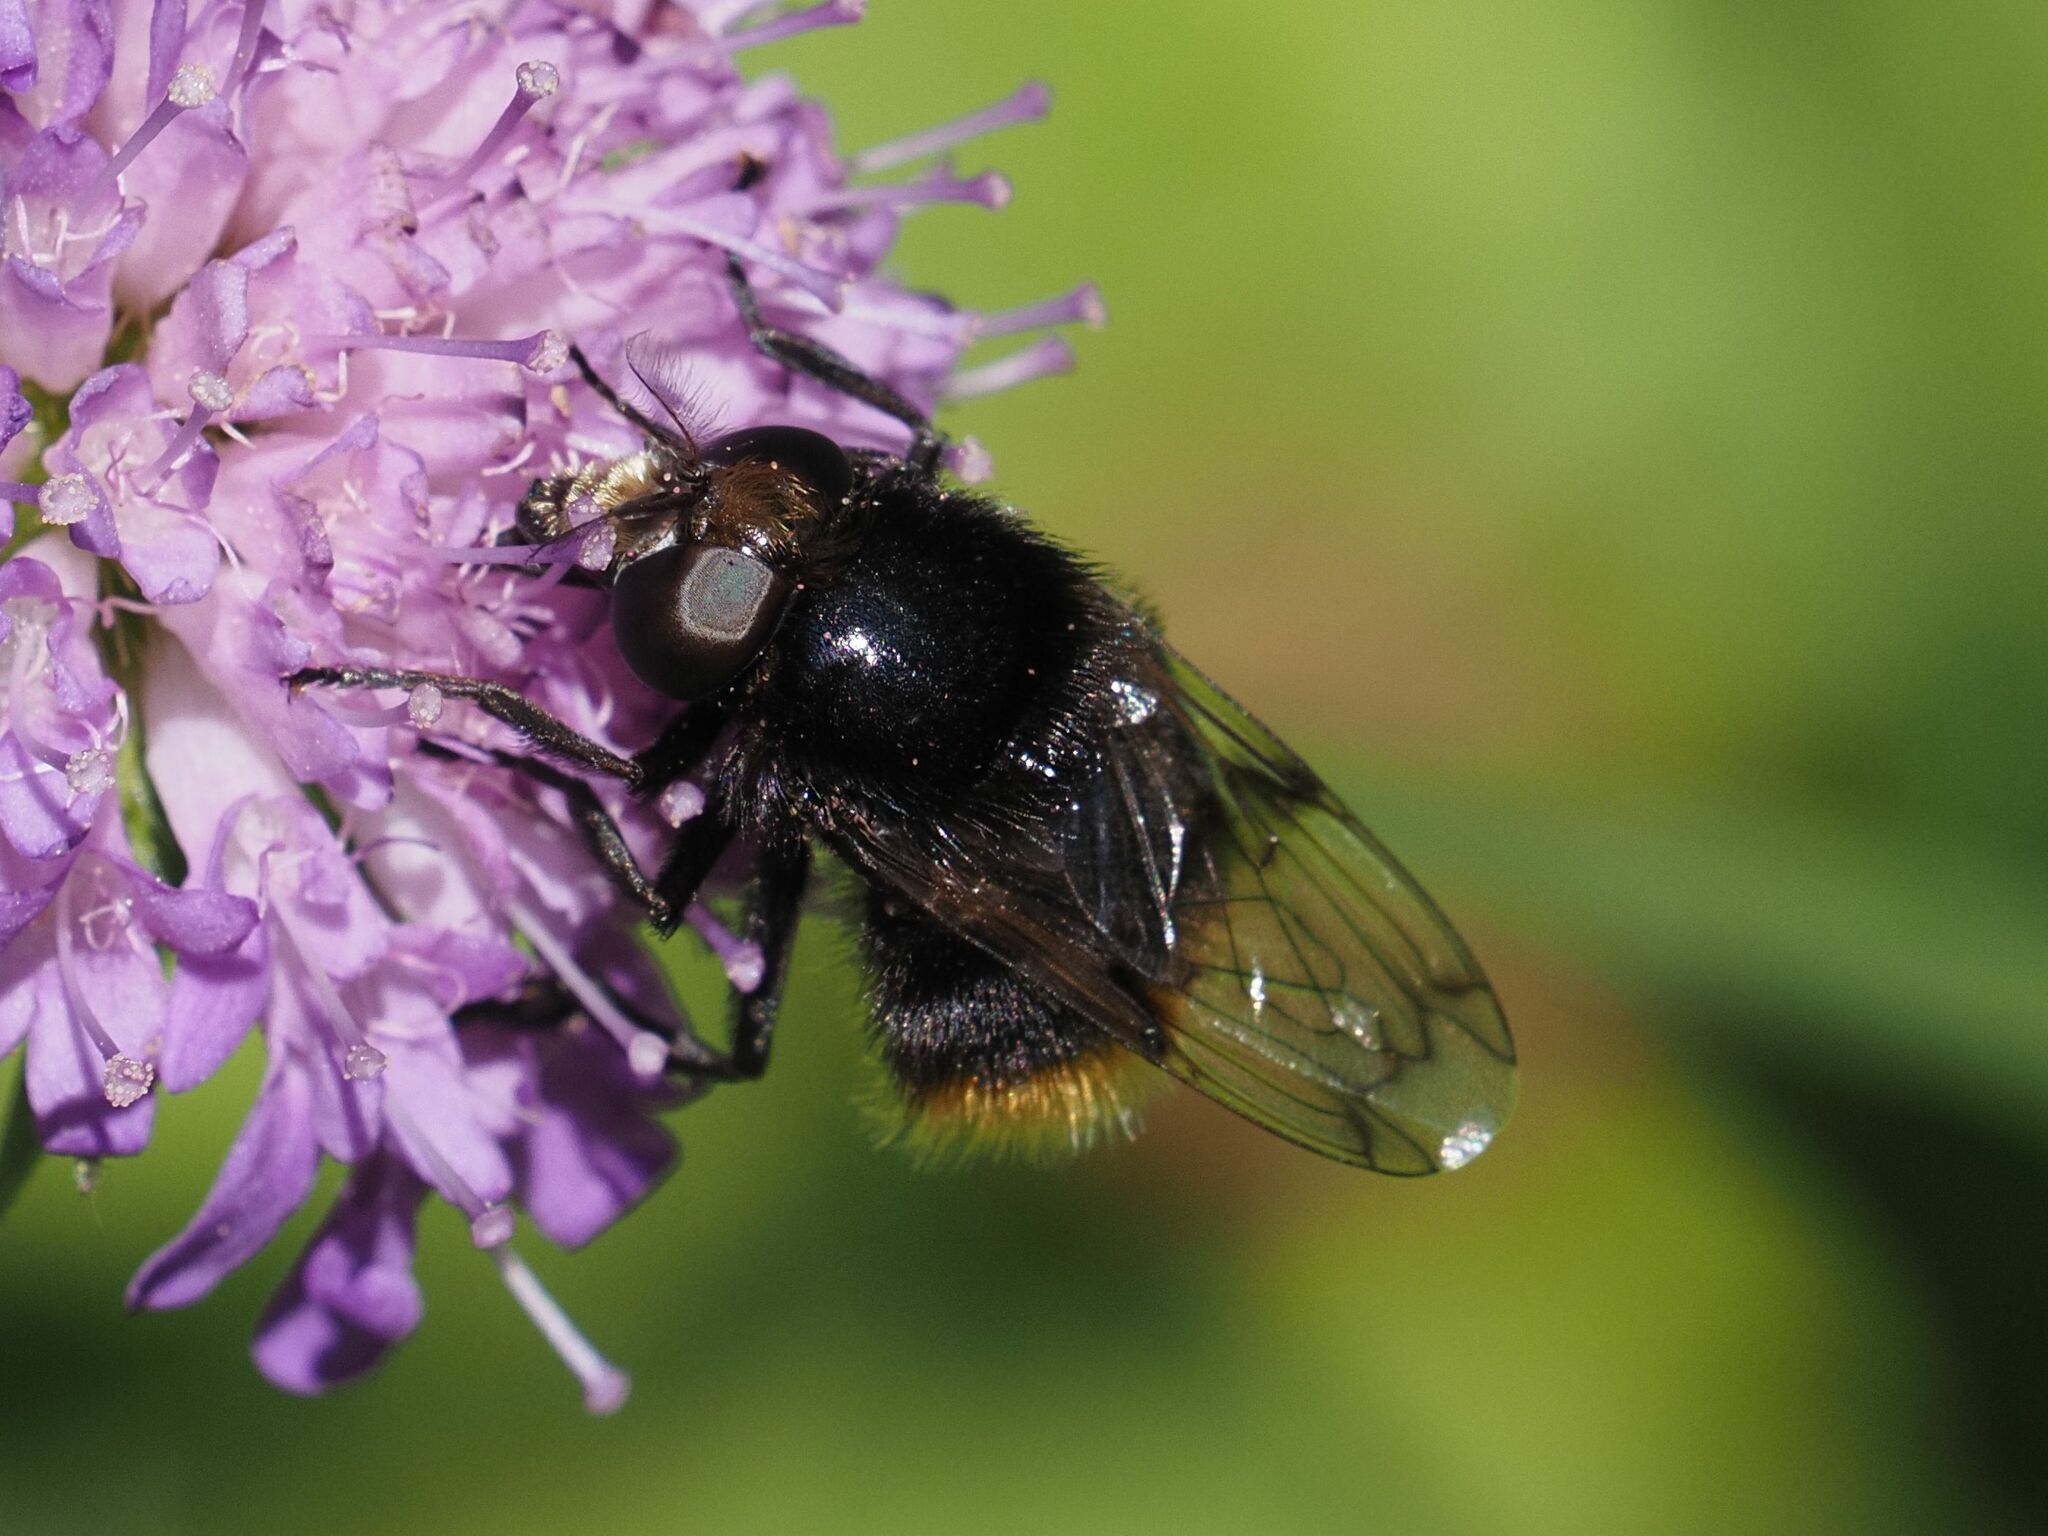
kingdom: Animalia
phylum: Arthropoda
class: Insecta
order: Diptera
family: Syrphidae
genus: Volucella
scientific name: Volucella bombylans
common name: Bumble bee hover fly
